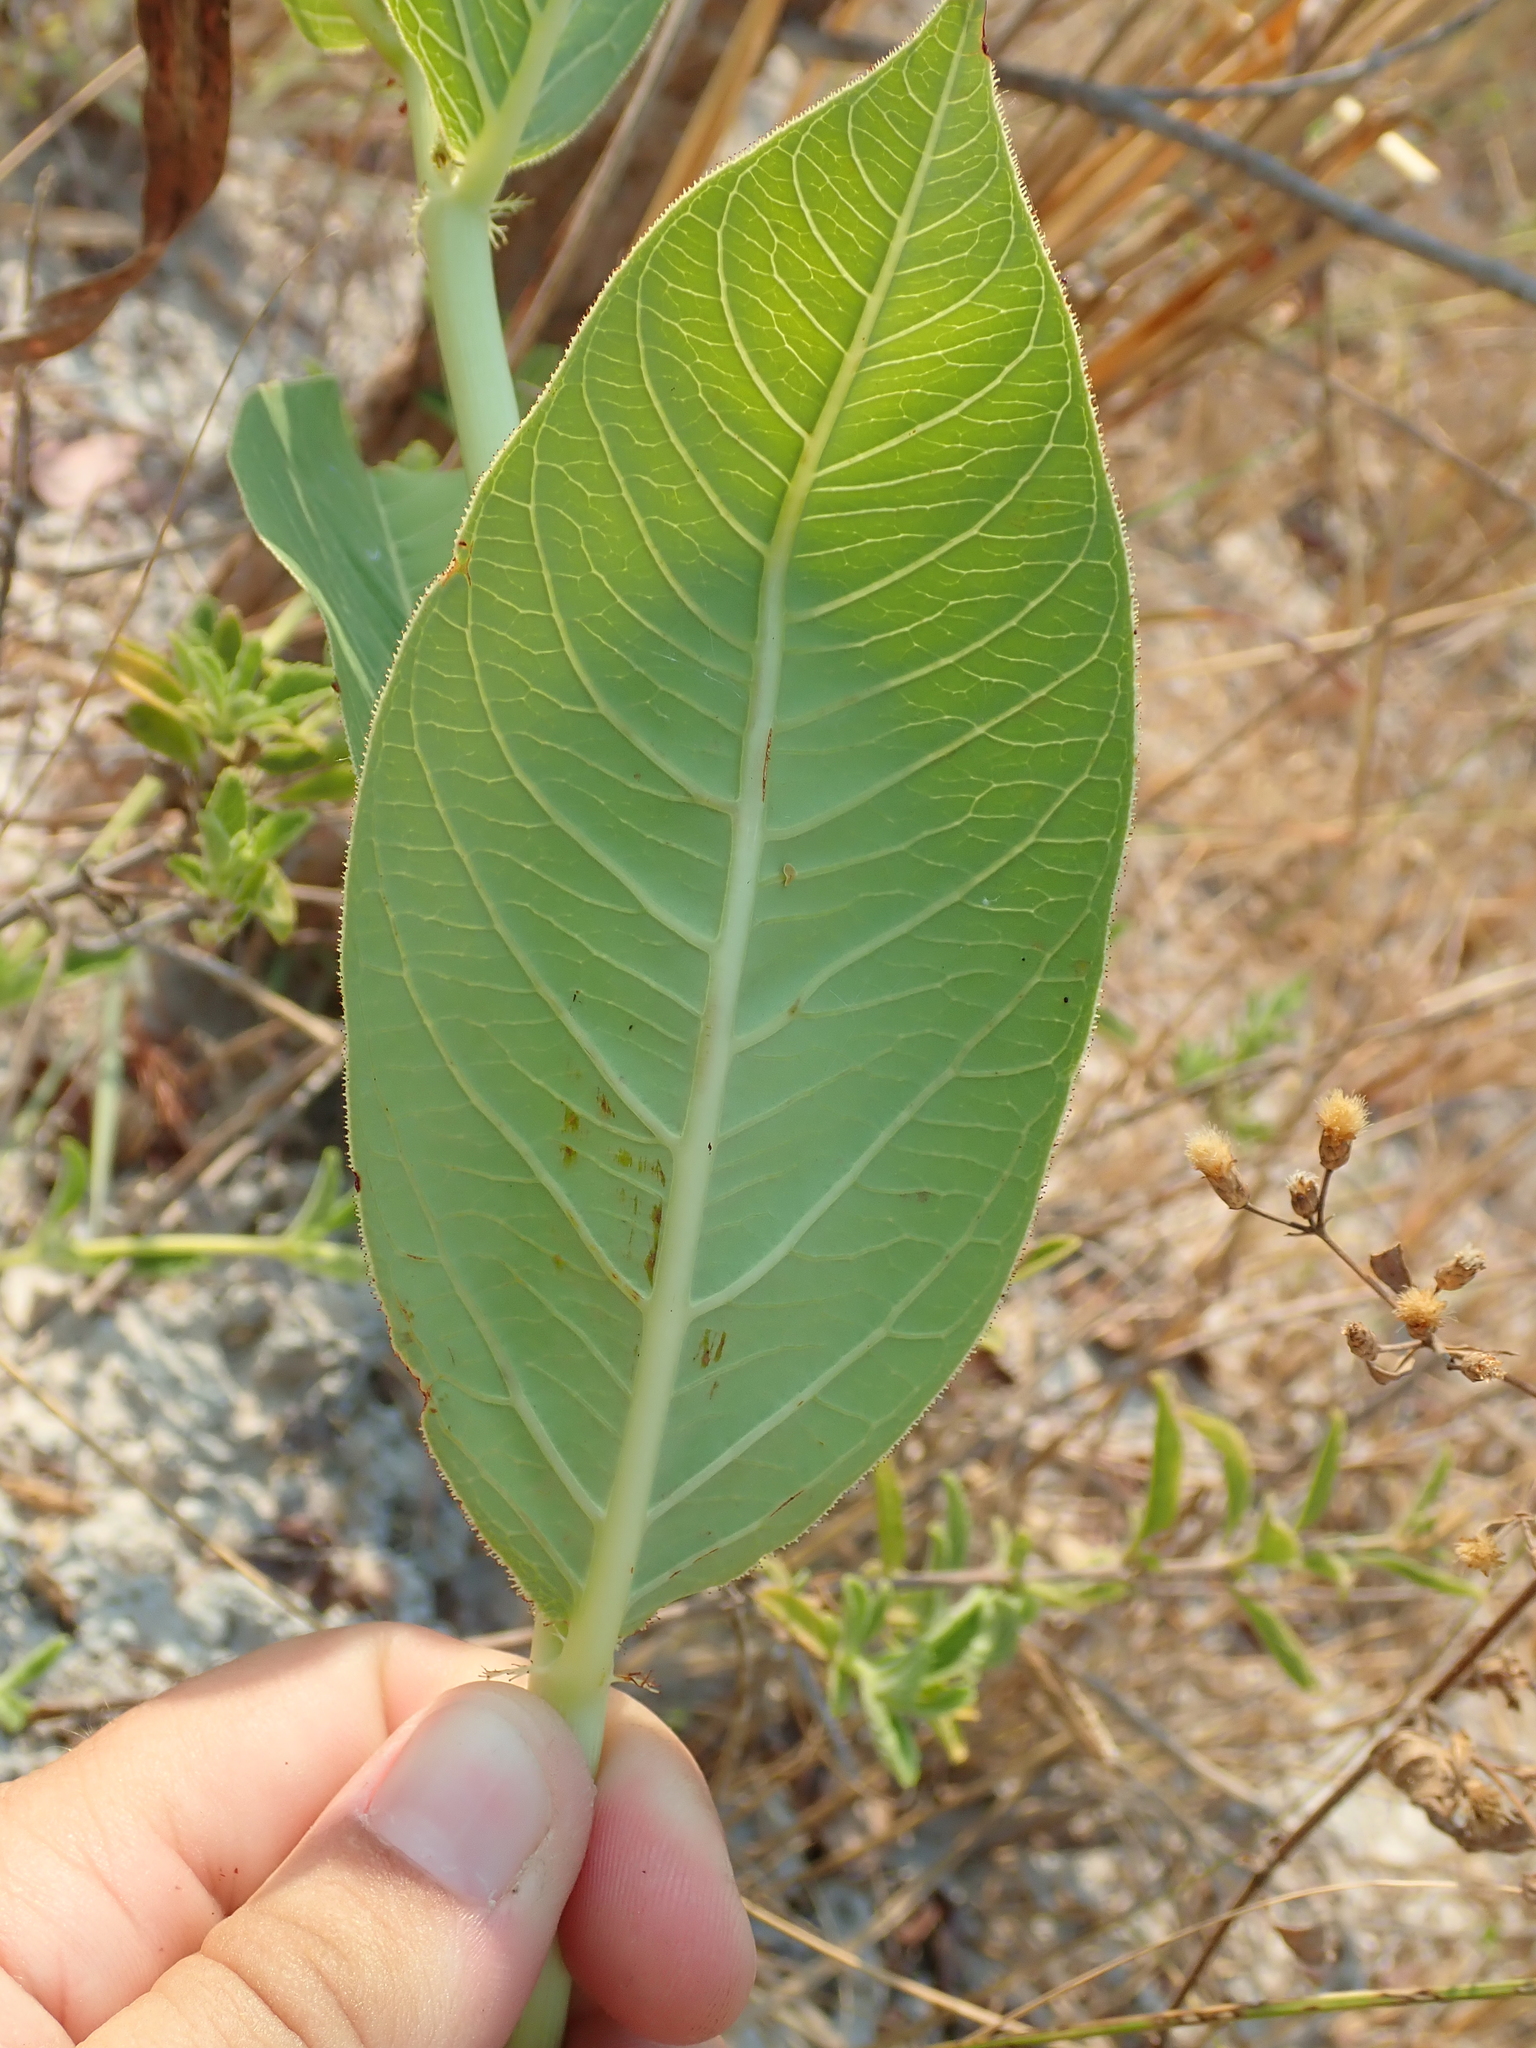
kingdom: Plantae
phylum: Tracheophyta
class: Magnoliopsida
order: Malpighiales
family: Euphorbiaceae
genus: Jatropha
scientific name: Jatropha elliptica
